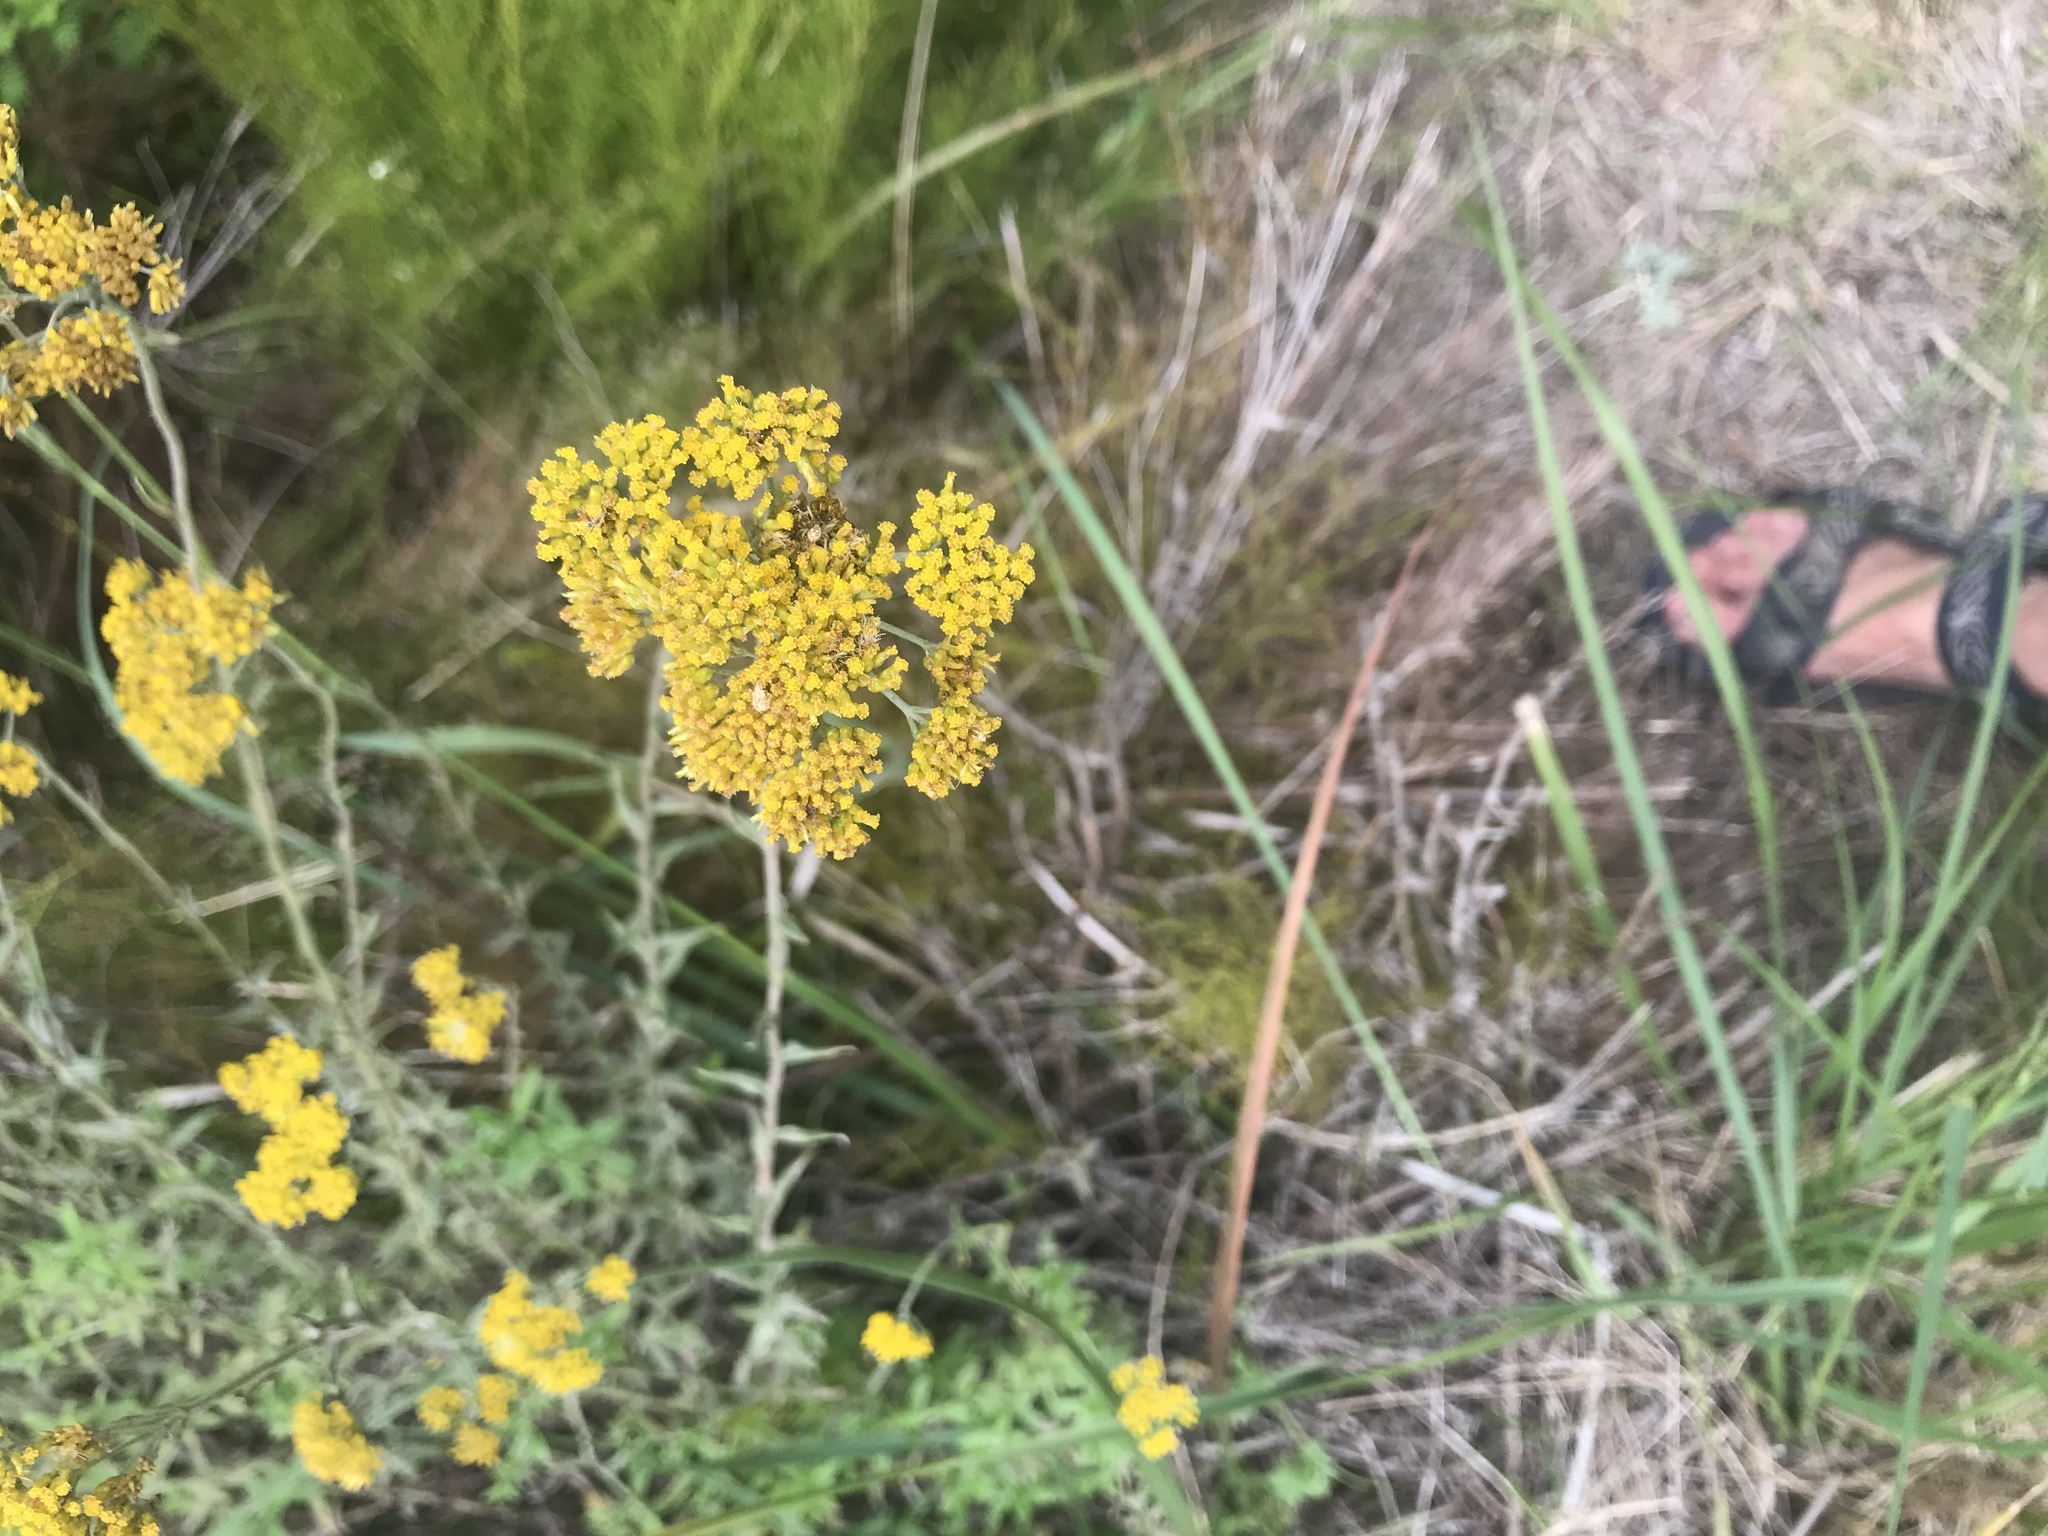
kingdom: Plantae
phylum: Tracheophyta
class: Magnoliopsida
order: Asterales
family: Asteraceae
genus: Helichrysum
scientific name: Helichrysum cymosum
